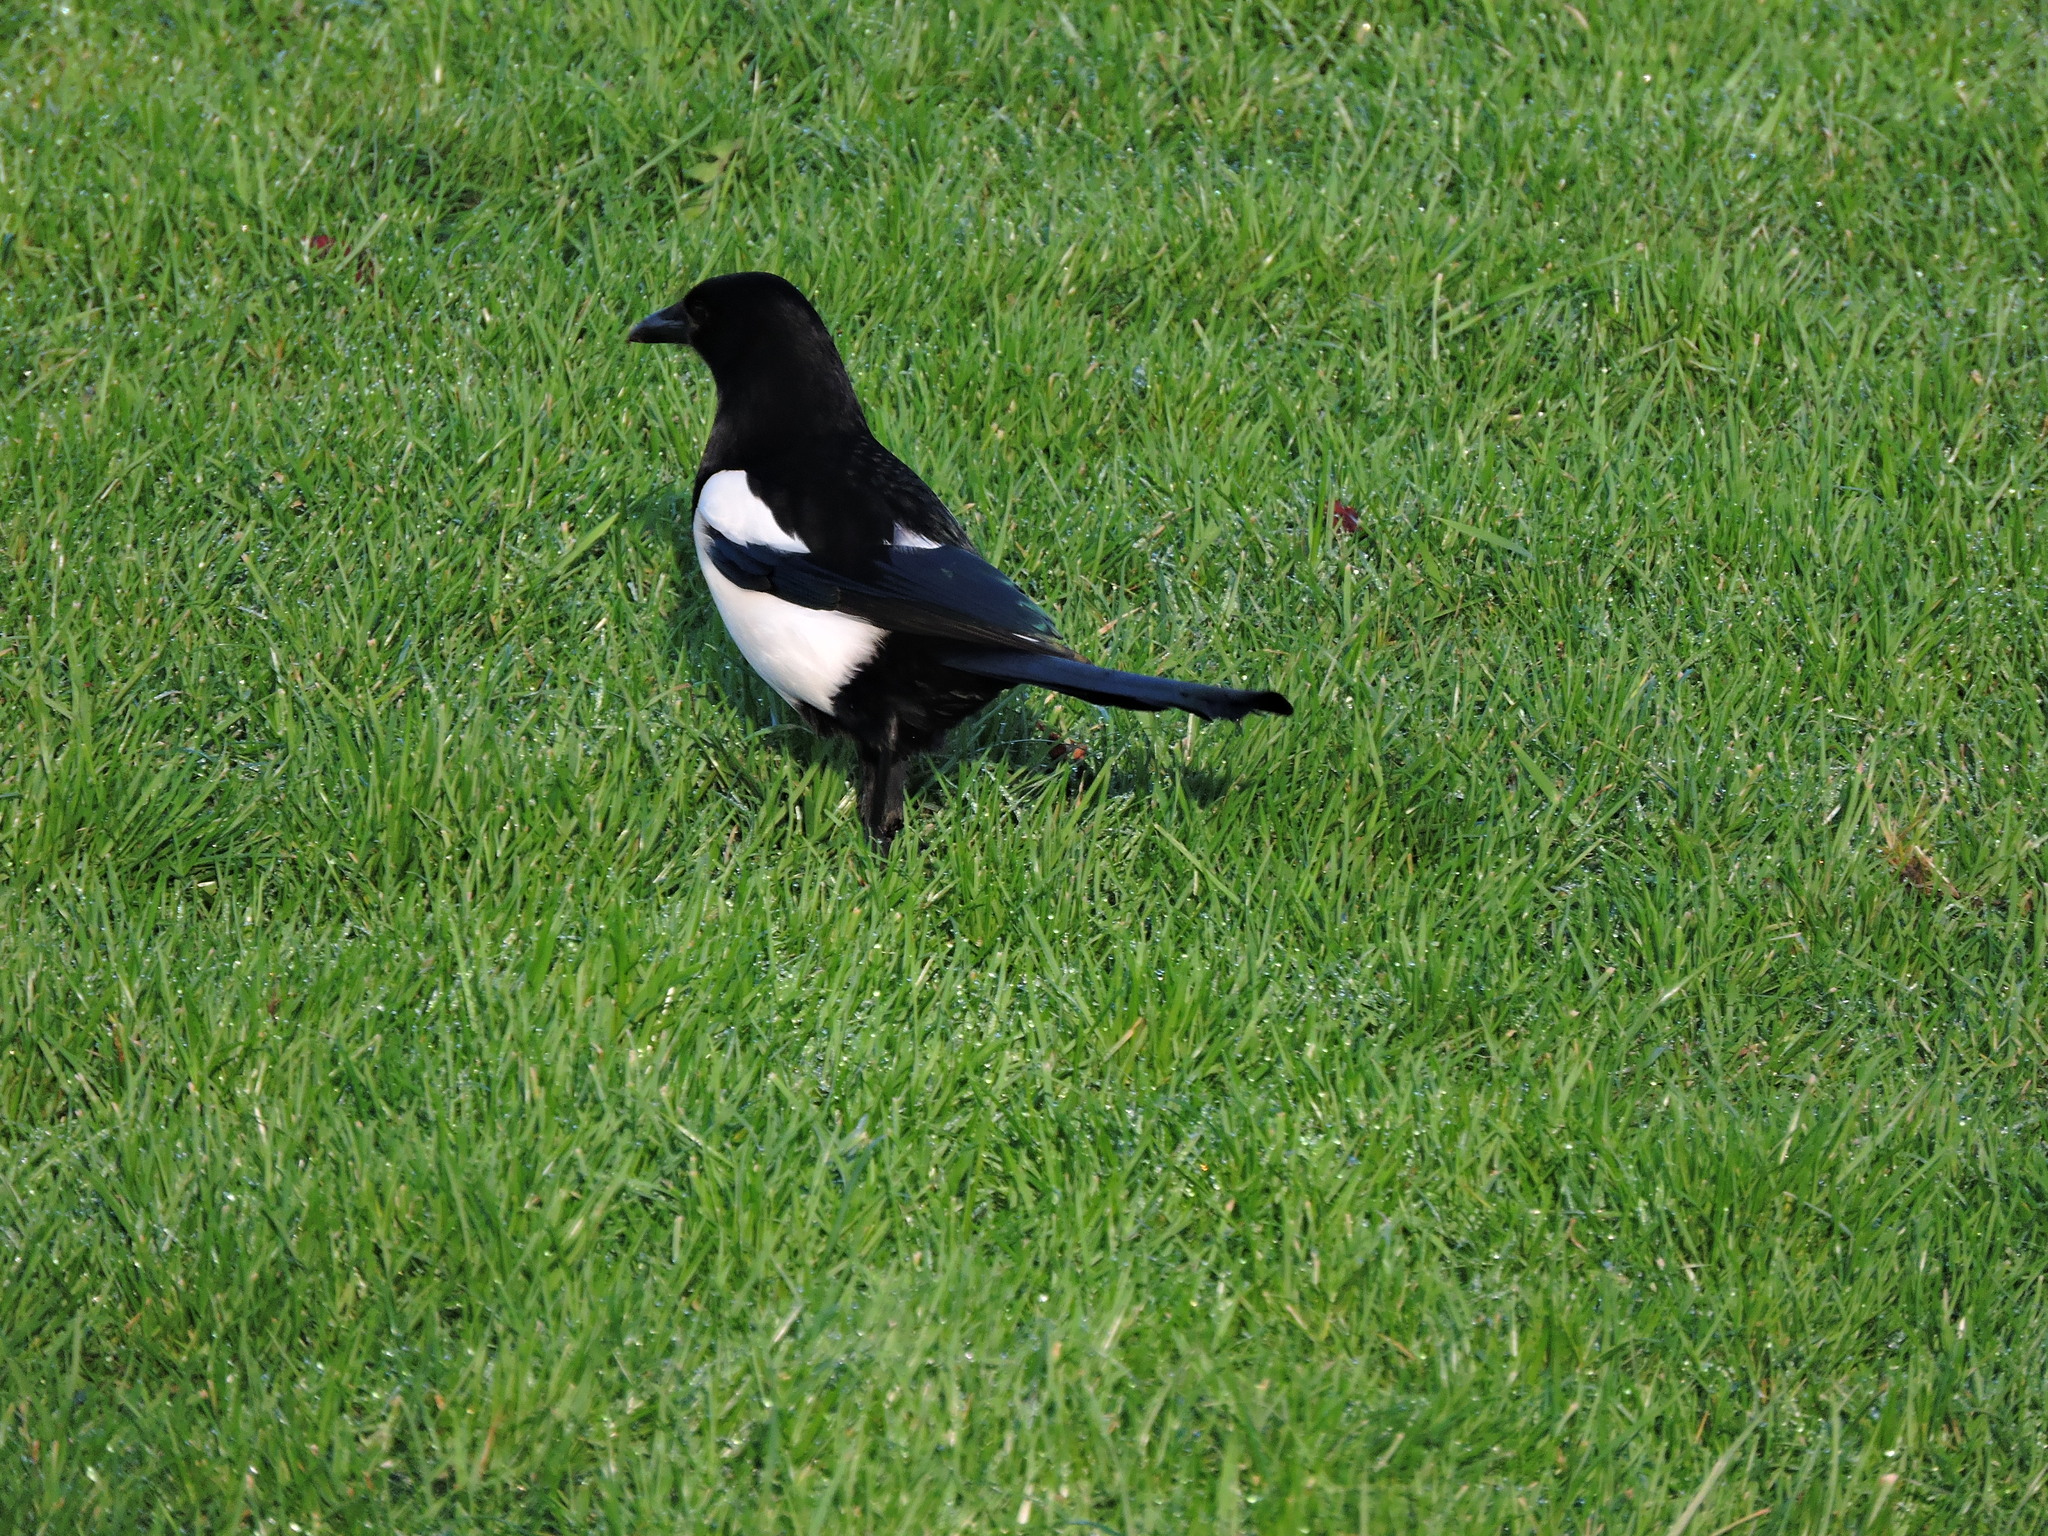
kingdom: Animalia
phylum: Chordata
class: Aves
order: Passeriformes
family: Corvidae
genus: Pica
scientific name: Pica pica
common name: Eurasian magpie
